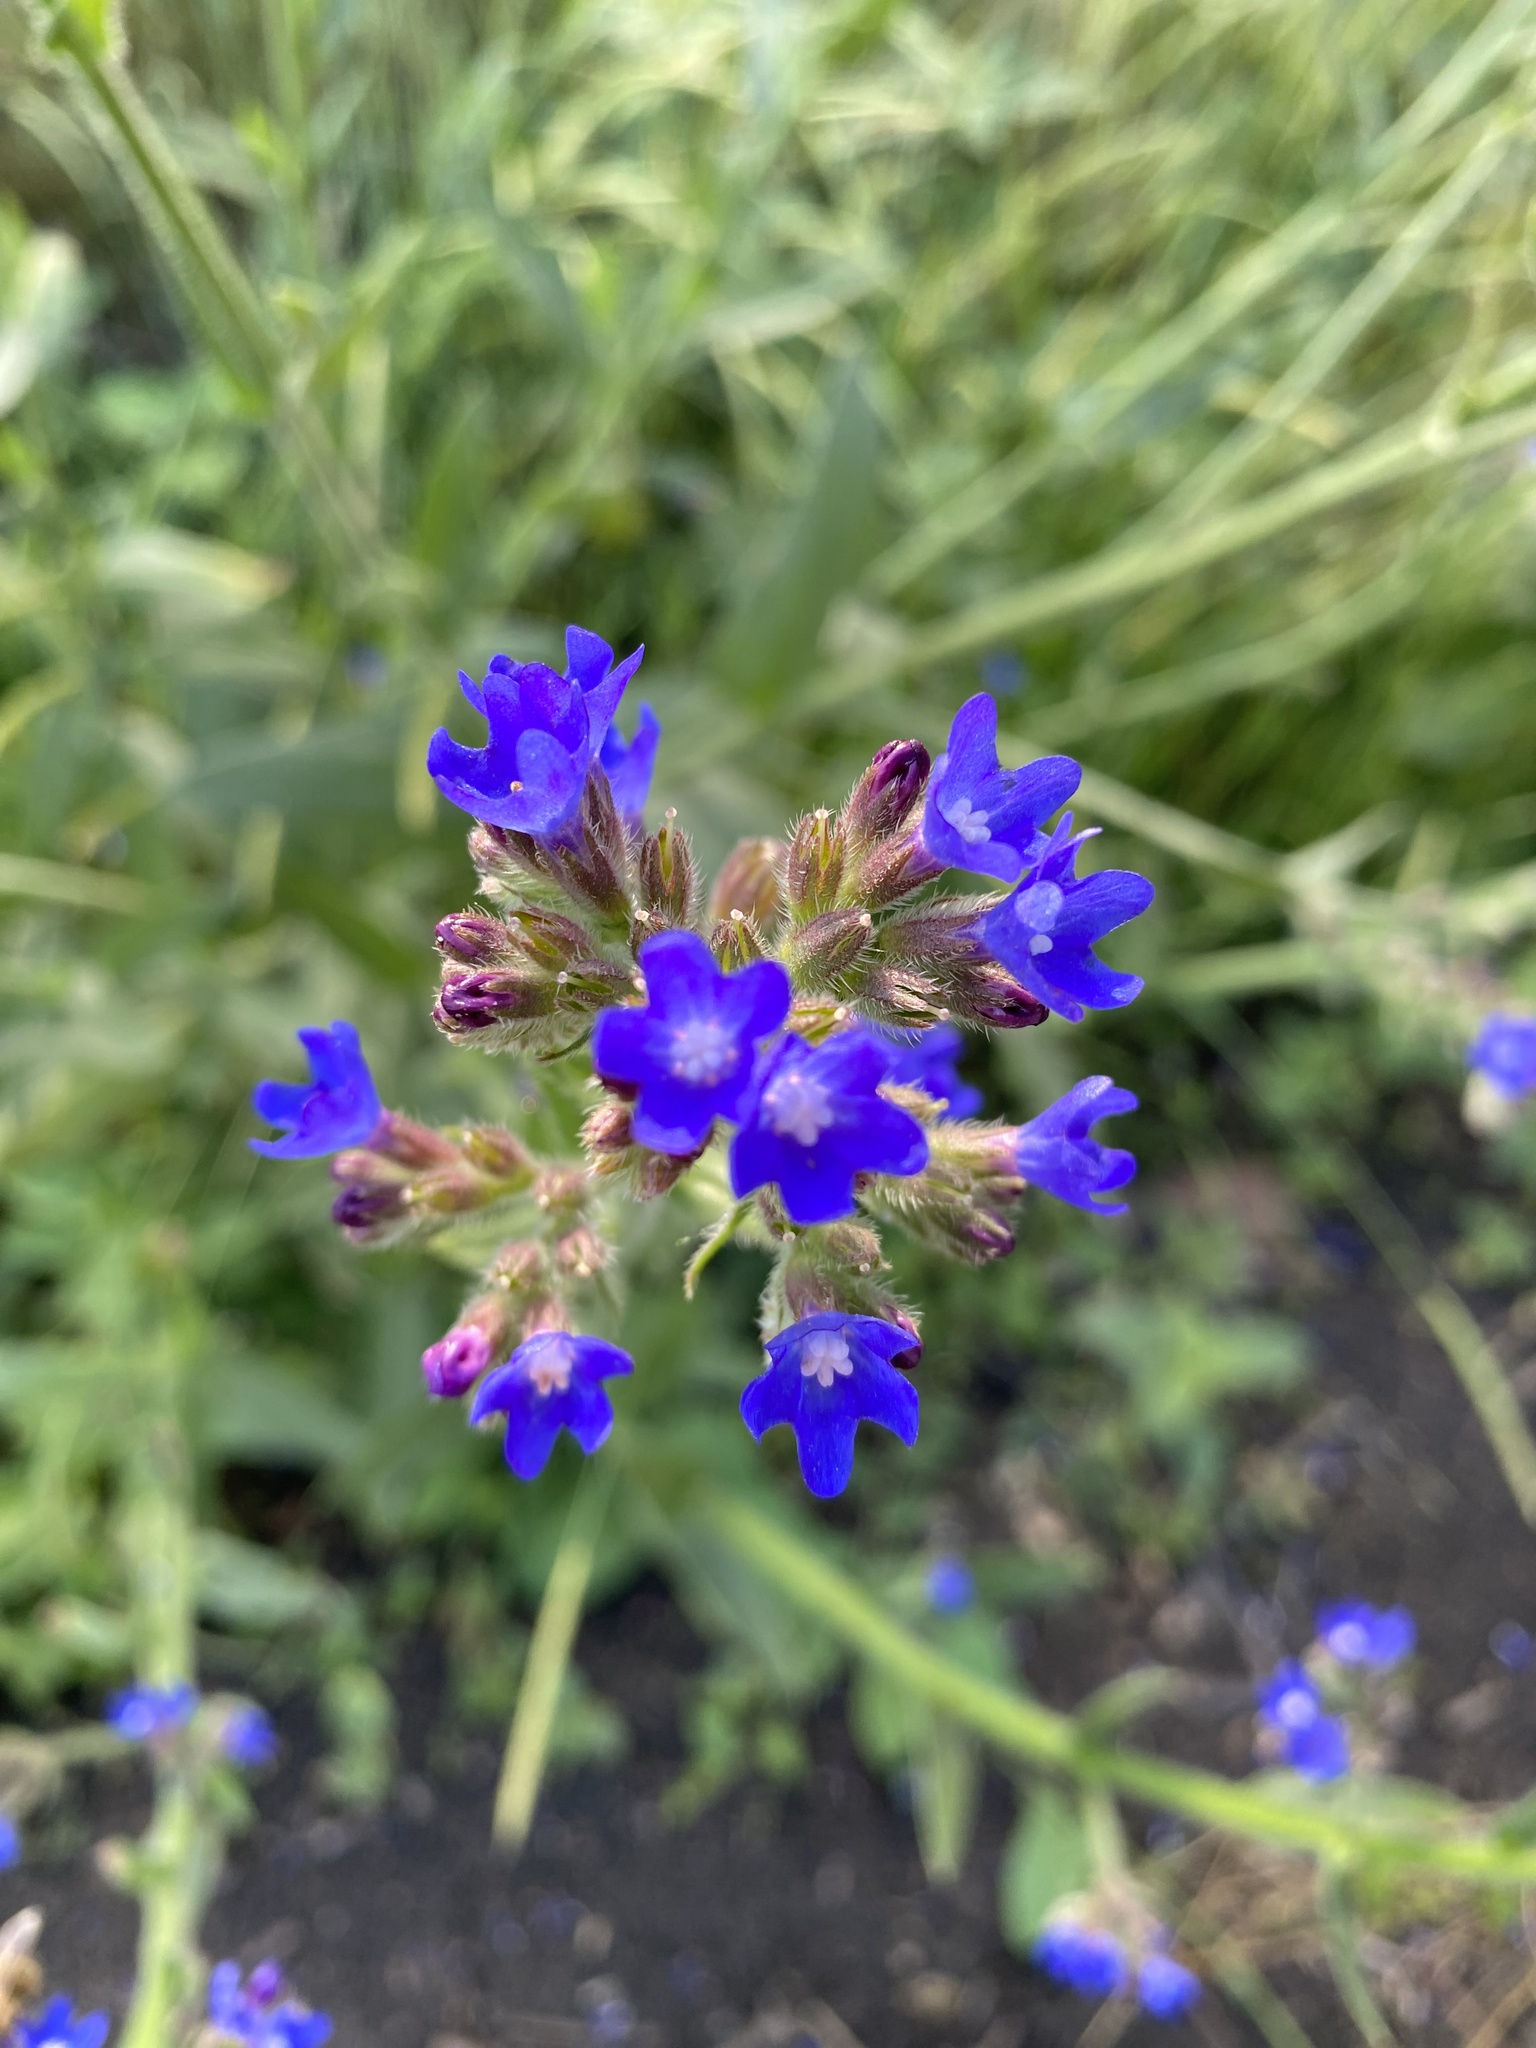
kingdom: Plantae
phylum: Tracheophyta
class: Magnoliopsida
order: Boraginales
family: Boraginaceae
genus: Anchusa
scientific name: Anchusa azurea
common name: Garden anchusa
